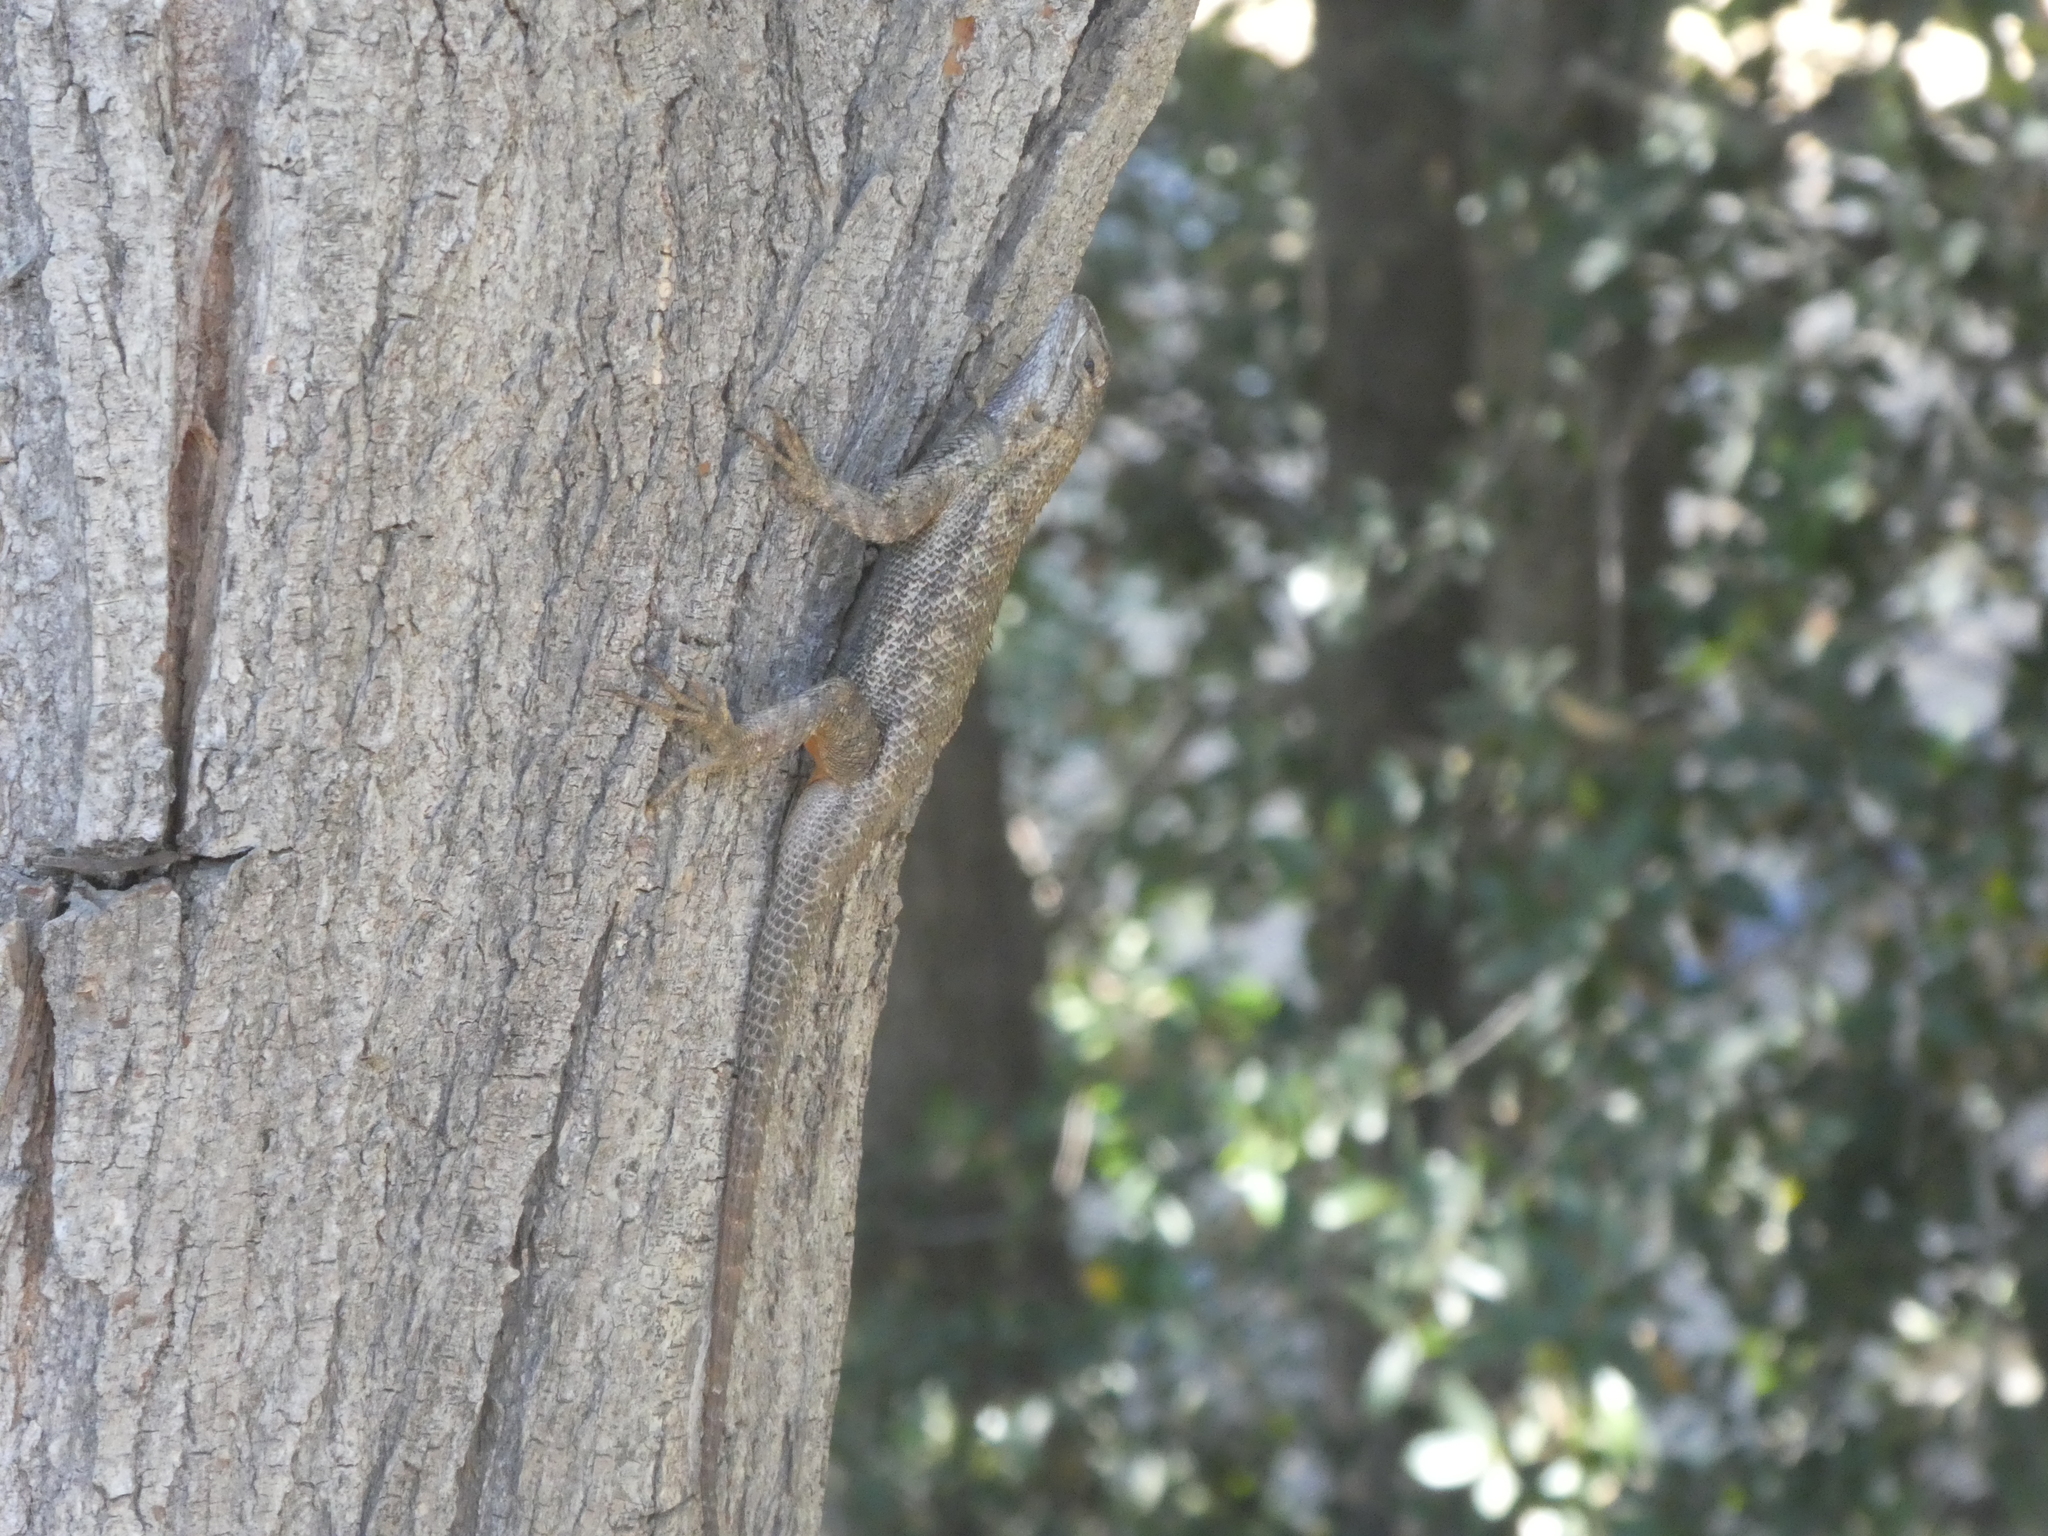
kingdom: Animalia
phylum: Chordata
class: Squamata
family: Phrynosomatidae
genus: Sceloporus
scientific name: Sceloporus occidentalis
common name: Western fence lizard
